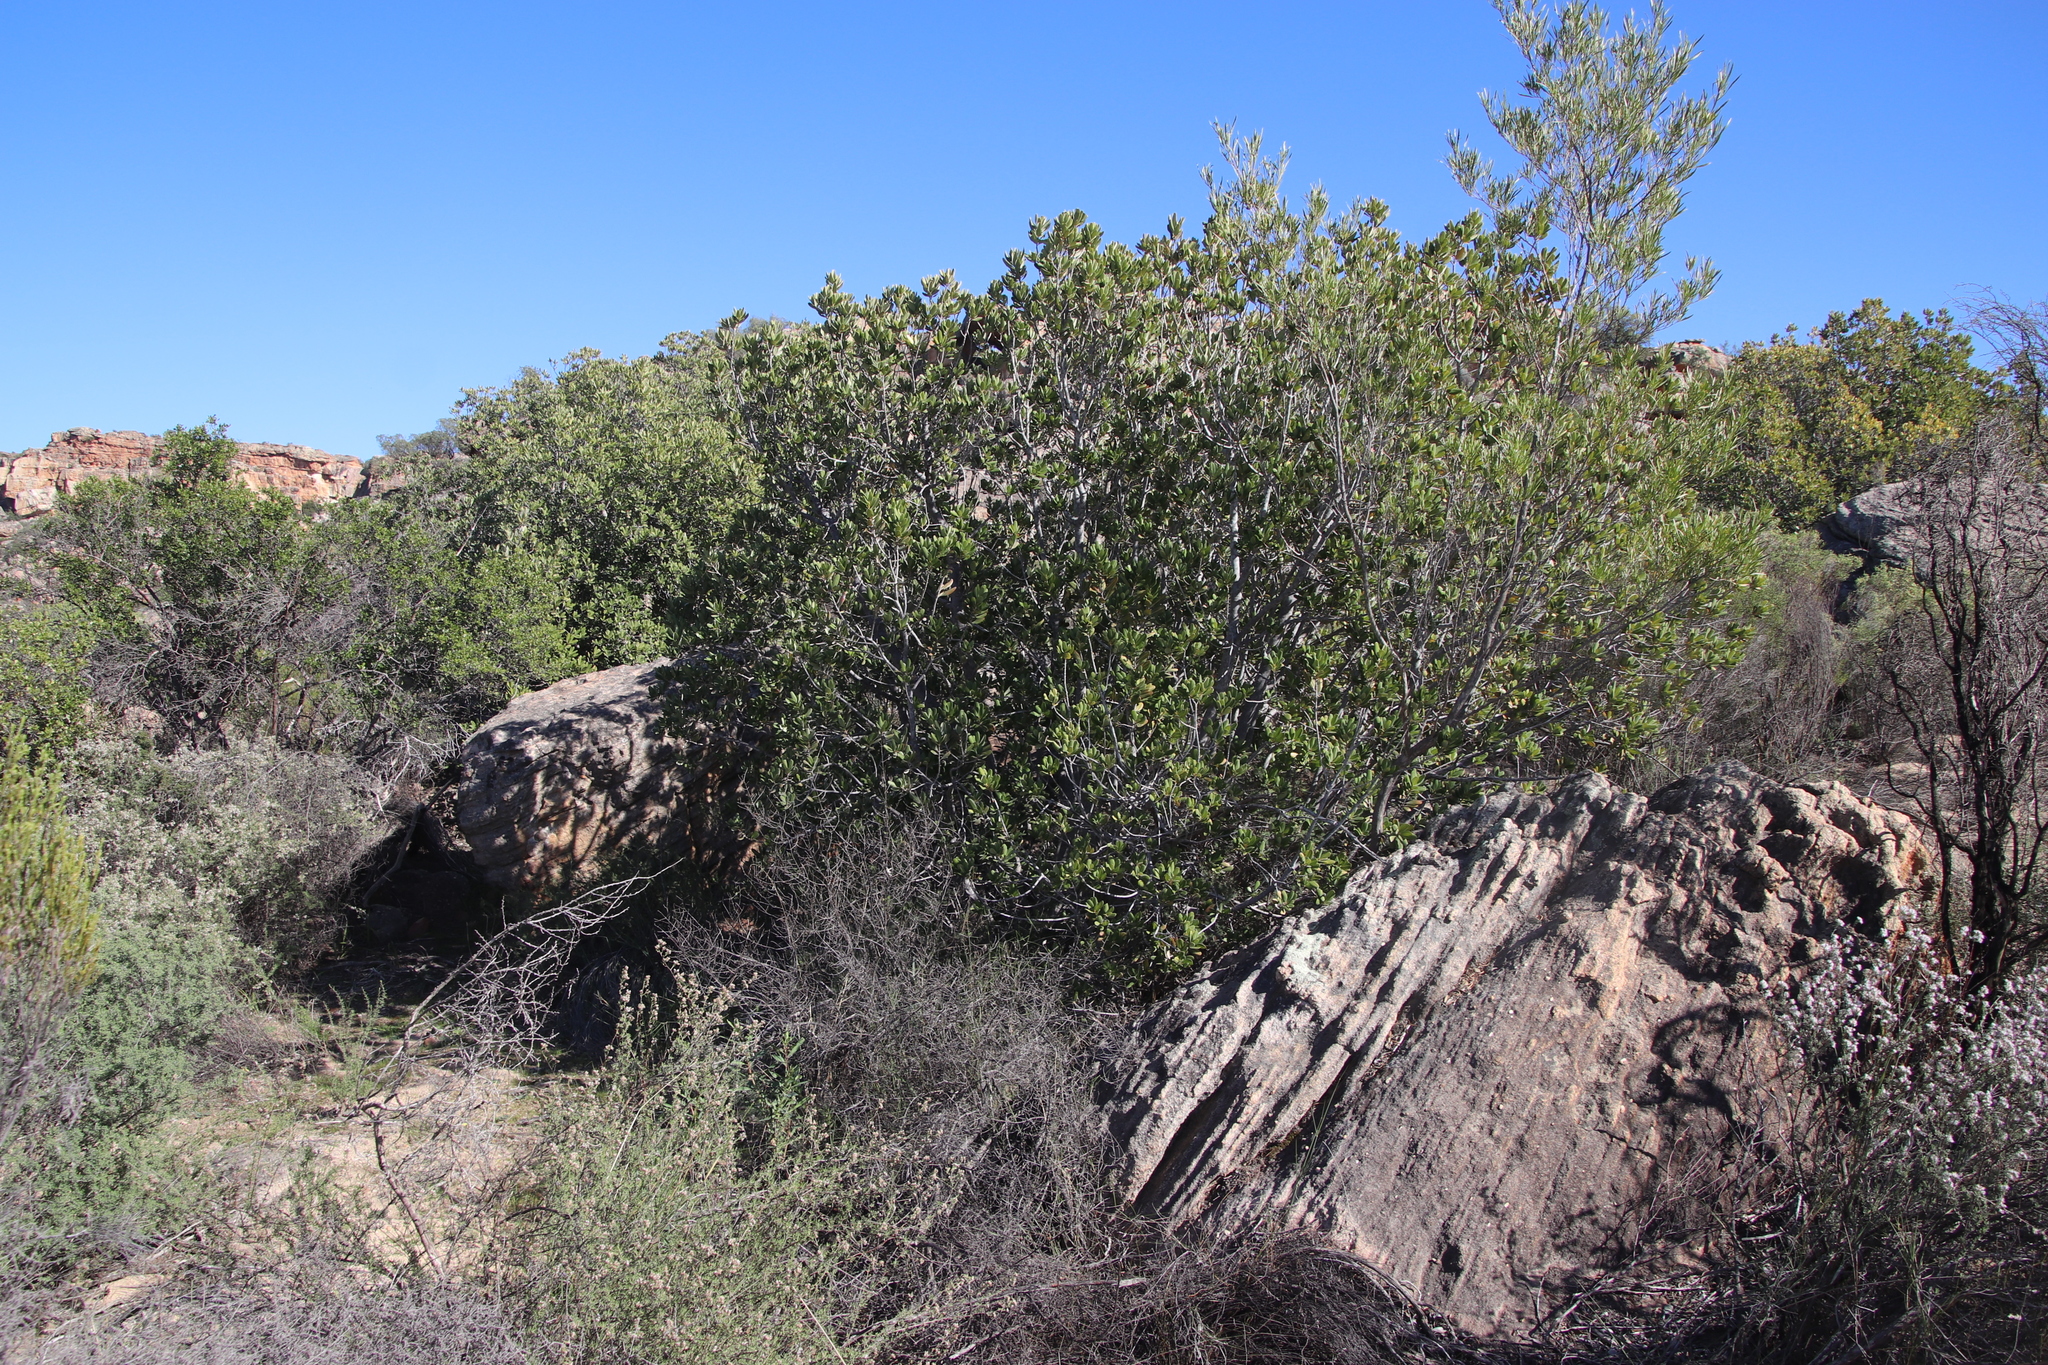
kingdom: Plantae
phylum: Tracheophyta
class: Magnoliopsida
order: Sapindales
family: Anacardiaceae
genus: Heeria
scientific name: Heeria argentea
